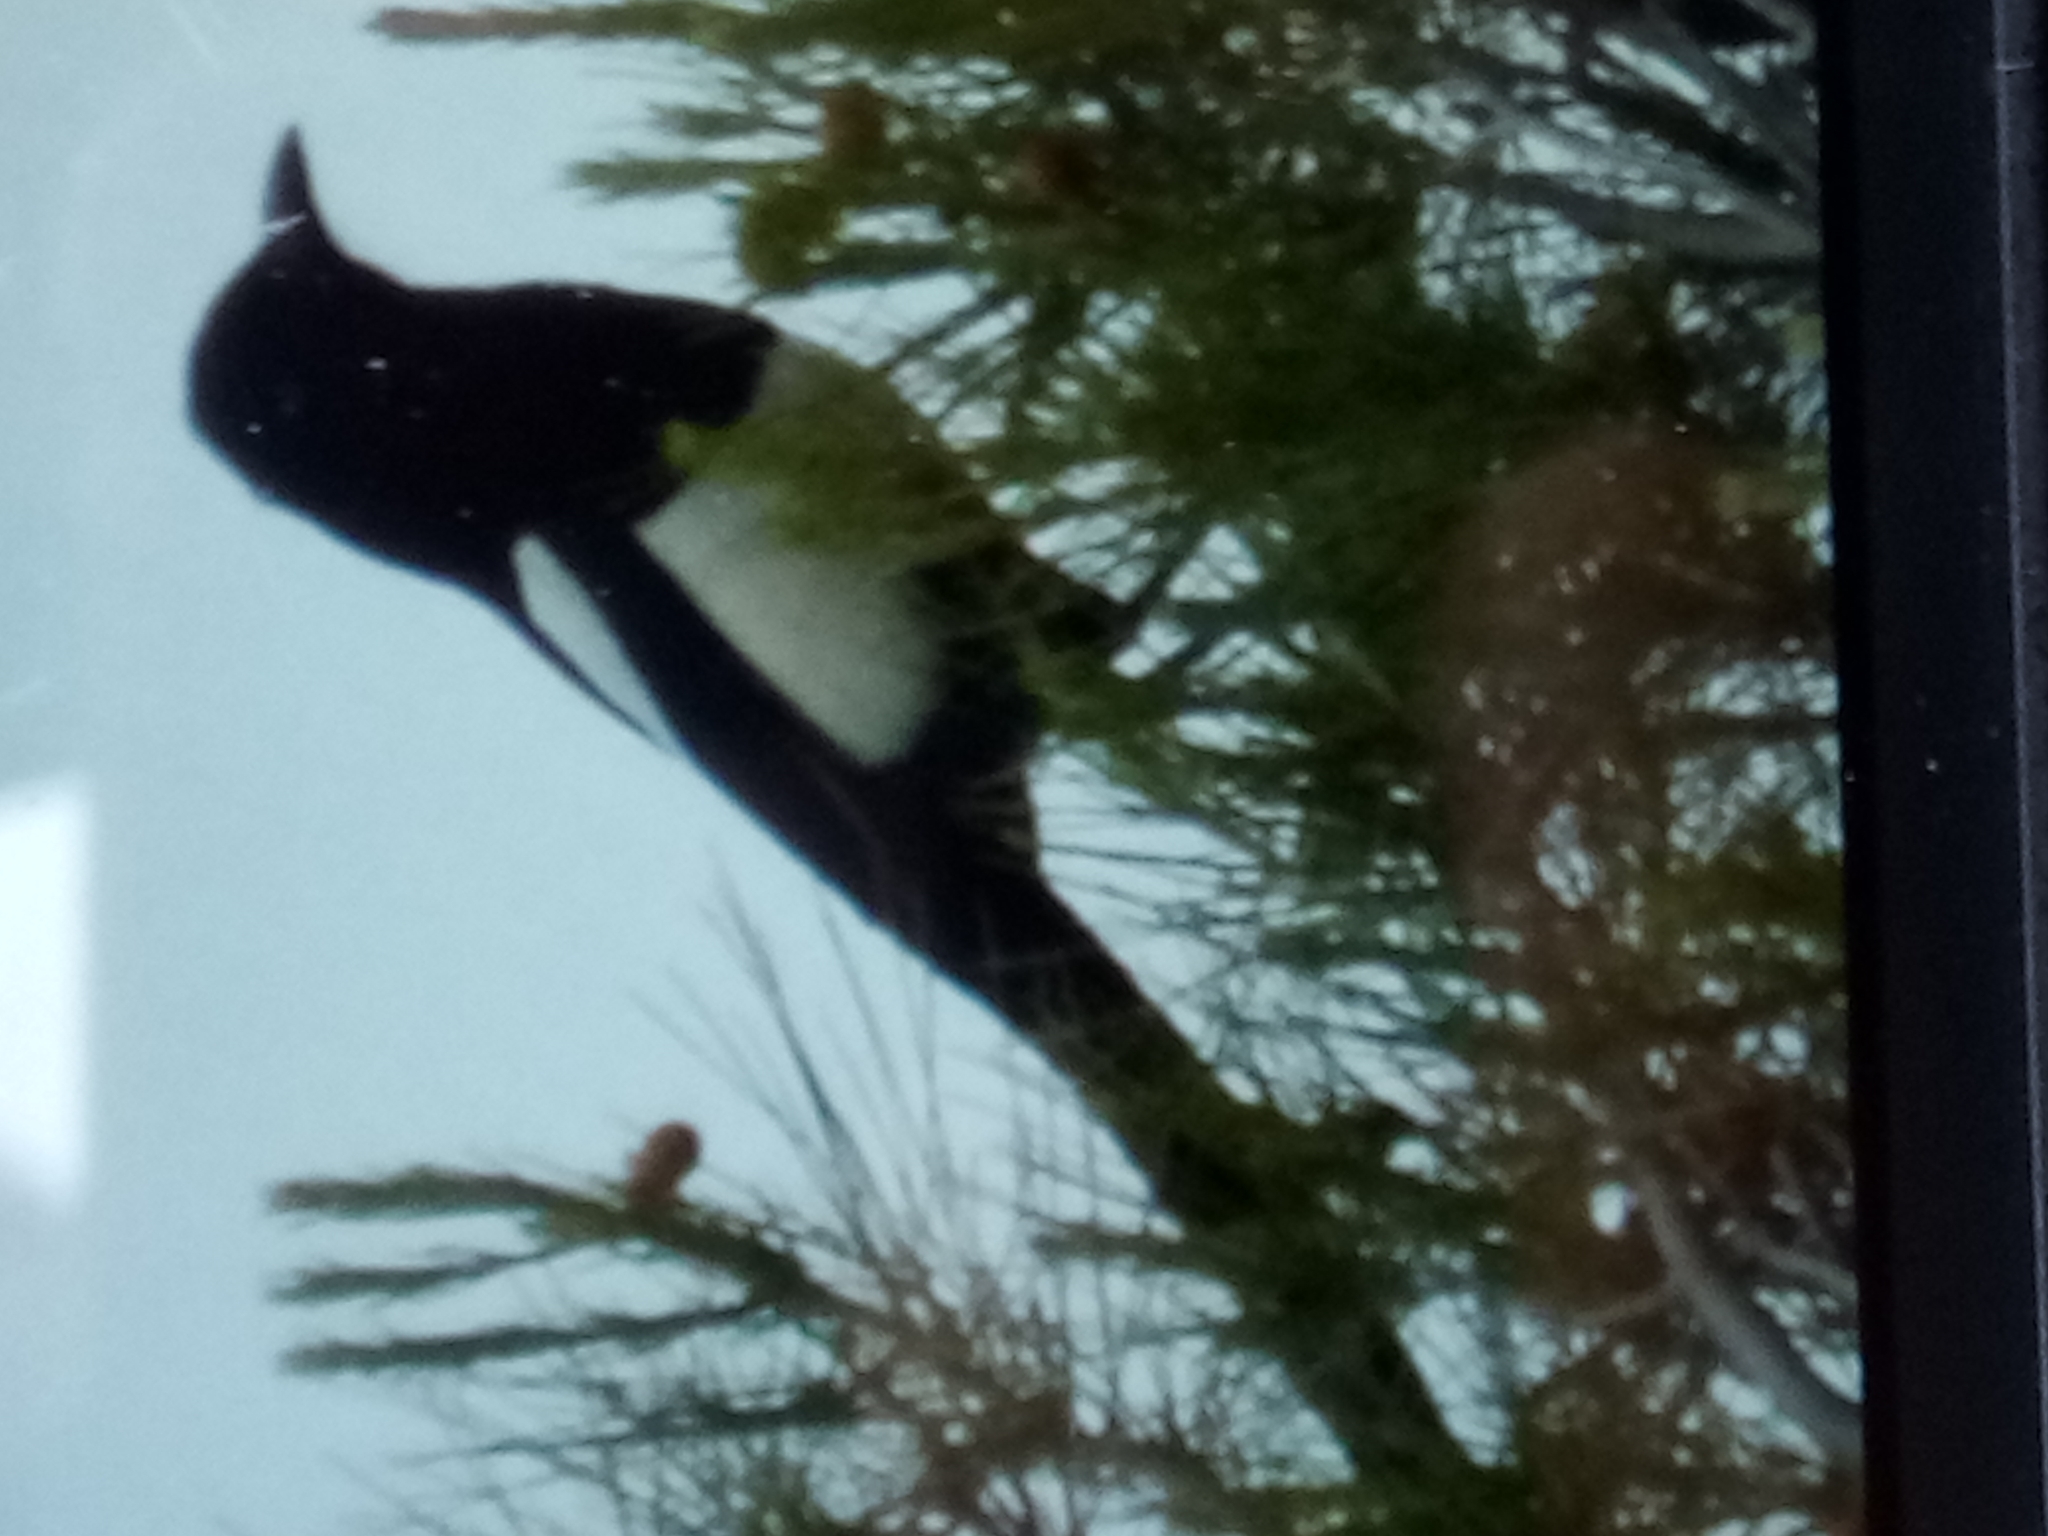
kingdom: Animalia
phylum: Chordata
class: Aves
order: Passeriformes
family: Corvidae
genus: Pica
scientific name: Pica mauritanica
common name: Maghreb magpie
